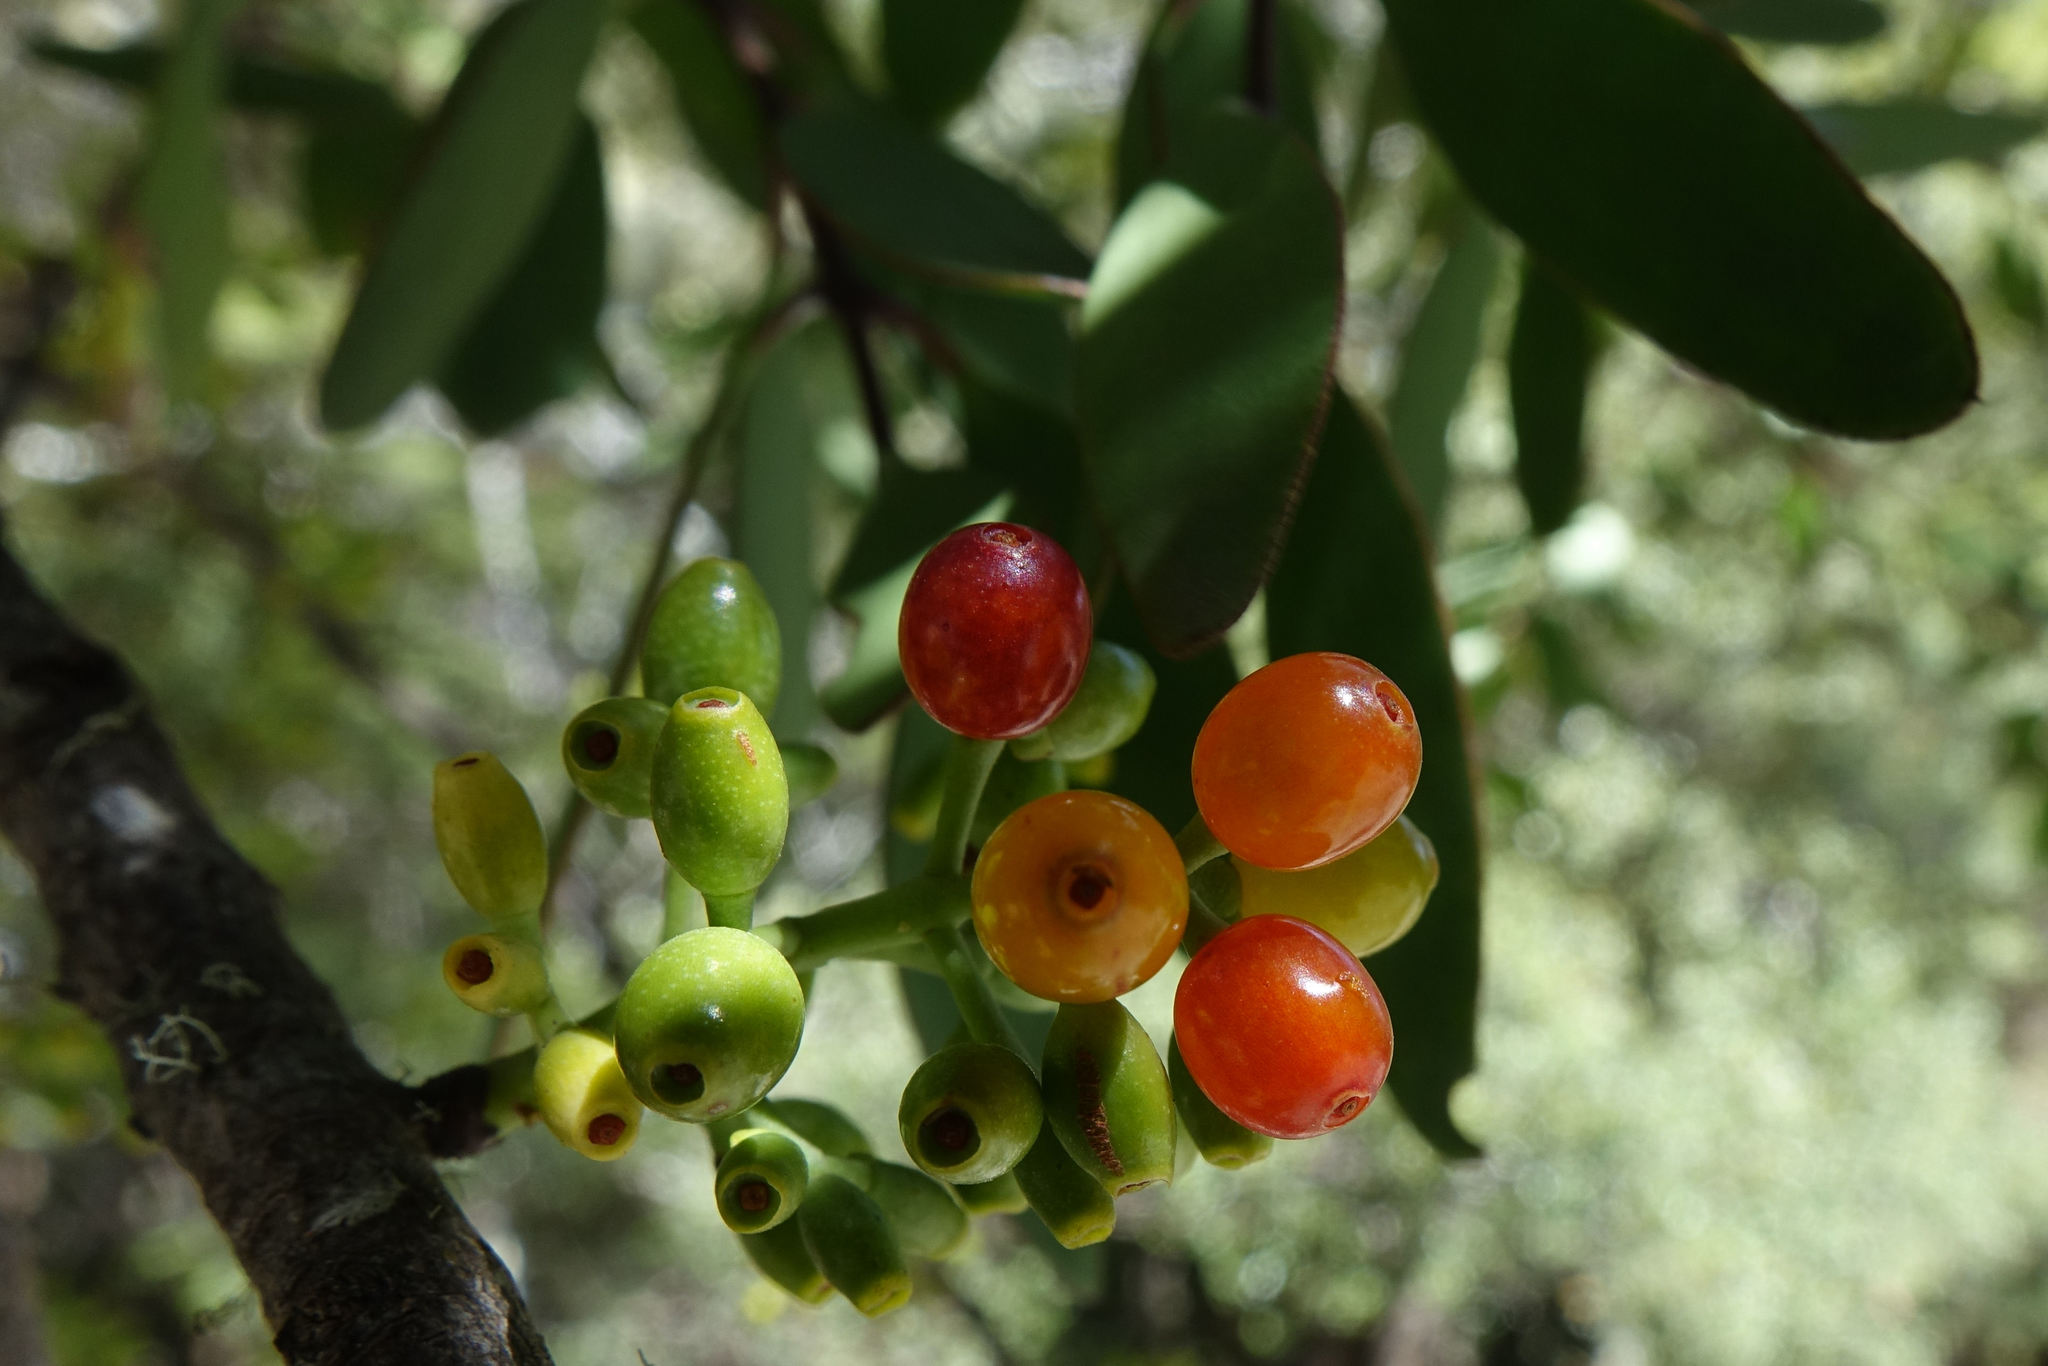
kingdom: Plantae
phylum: Tracheophyta
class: Magnoliopsida
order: Santalales
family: Loranthaceae
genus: Alepis
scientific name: Alepis flavida
